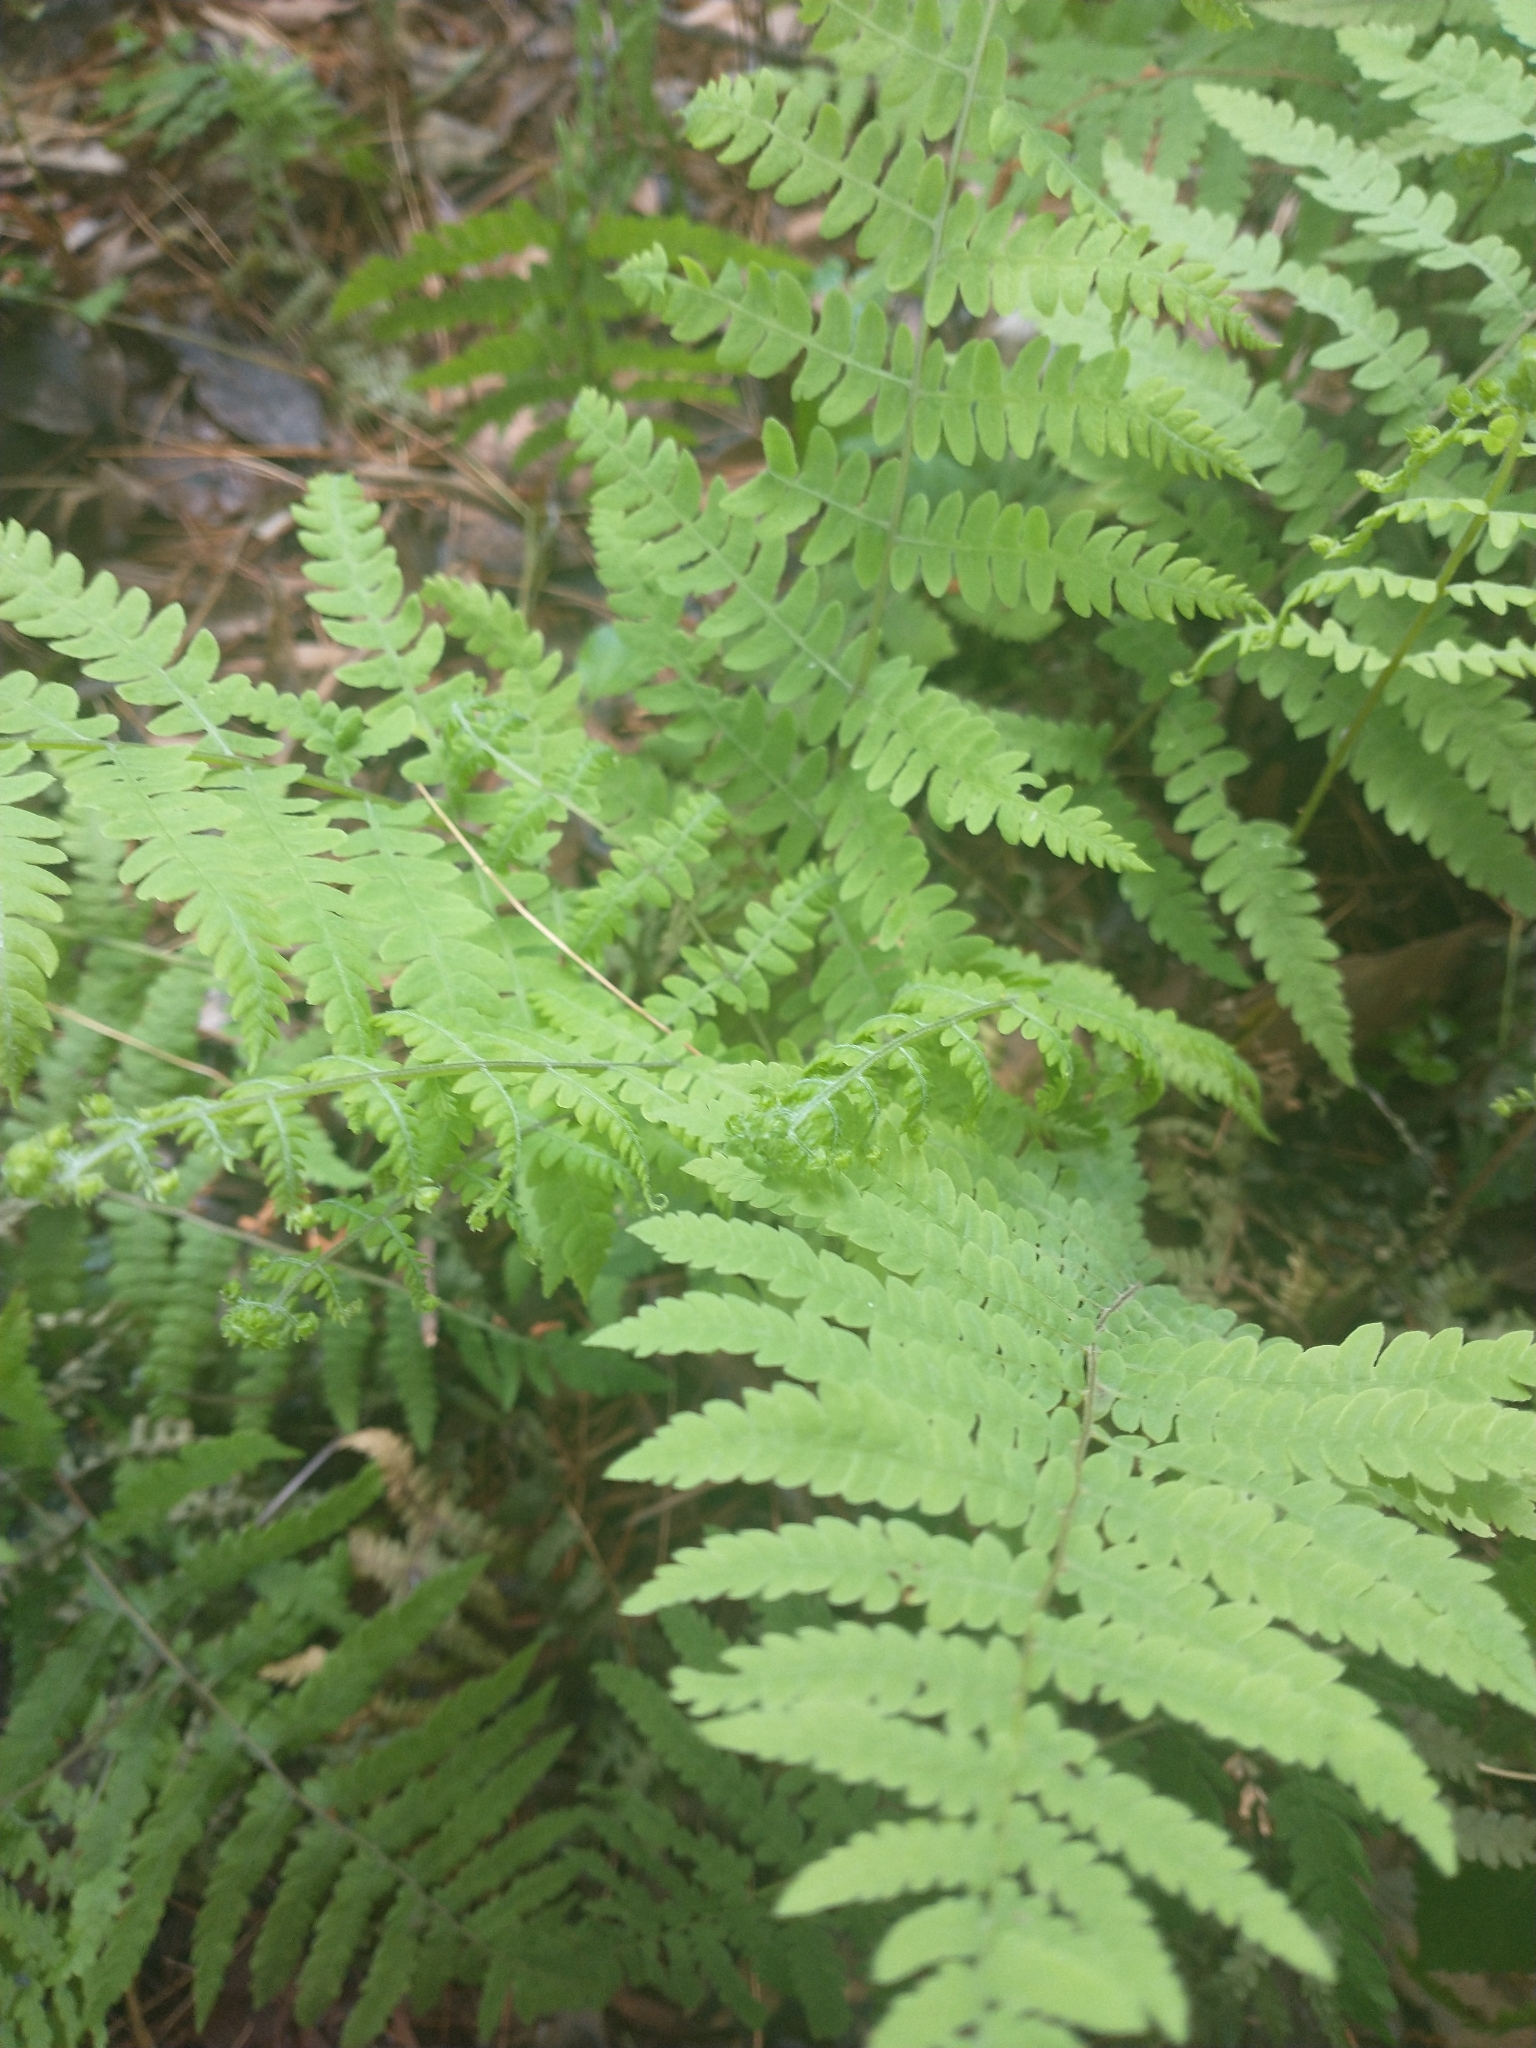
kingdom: Plantae
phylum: Tracheophyta
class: Polypodiopsida
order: Polypodiales
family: Thelypteridaceae
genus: Thelypteris
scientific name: Thelypteris palustris
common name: Marsh fern
